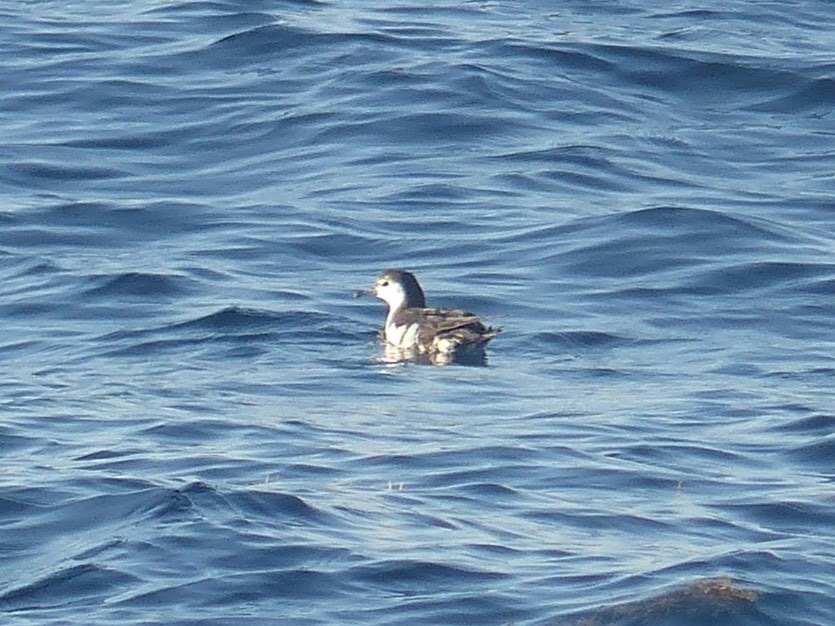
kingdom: Animalia
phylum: Chordata
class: Aves
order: Procellariiformes
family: Procellariidae
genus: Puffinus
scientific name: Puffinus lherminieri
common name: Audubon's shearwater
